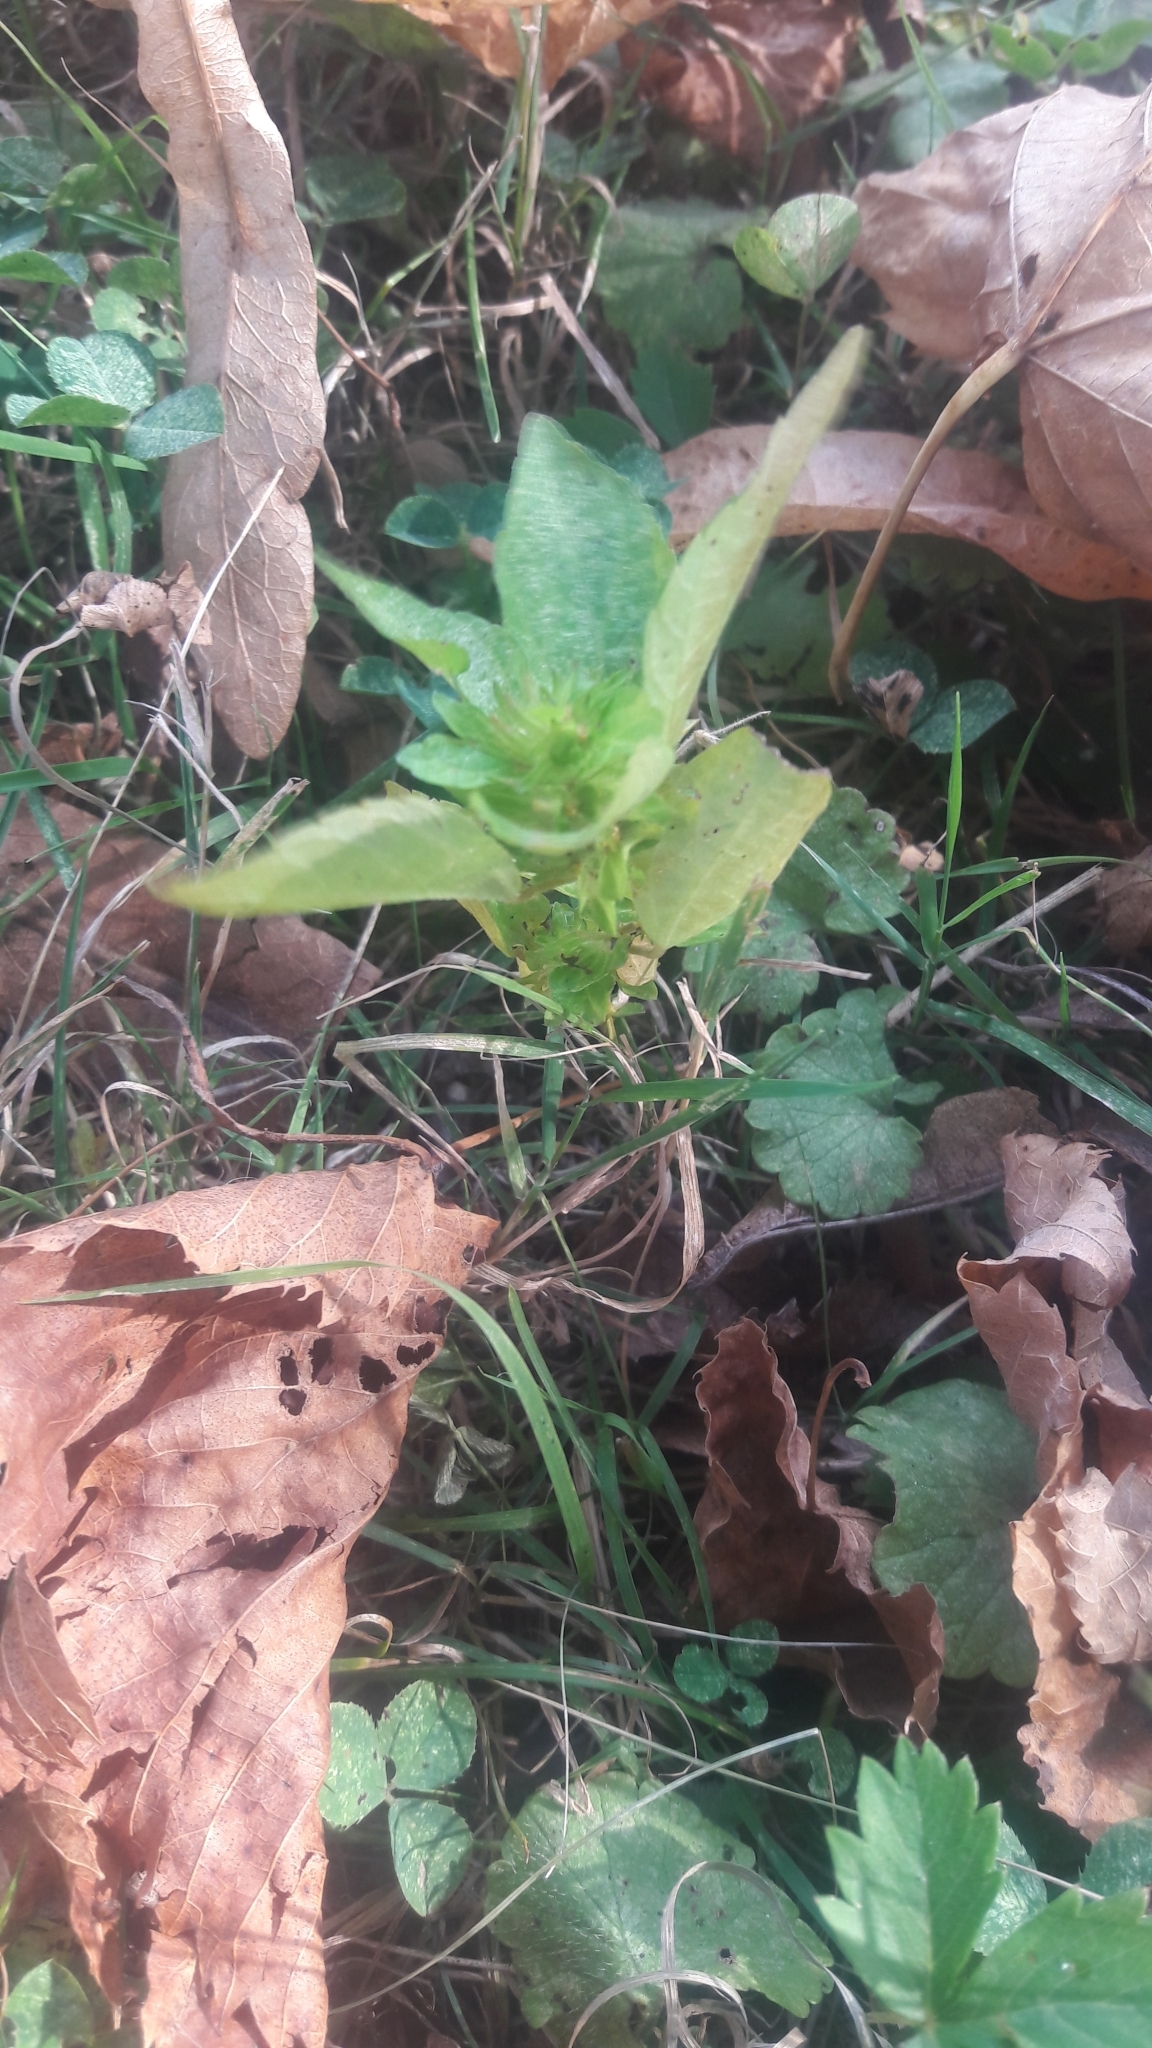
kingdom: Plantae
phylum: Tracheophyta
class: Magnoliopsida
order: Malpighiales
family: Euphorbiaceae
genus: Acalypha
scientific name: Acalypha rhomboidea
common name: Rhombic copperleaf
